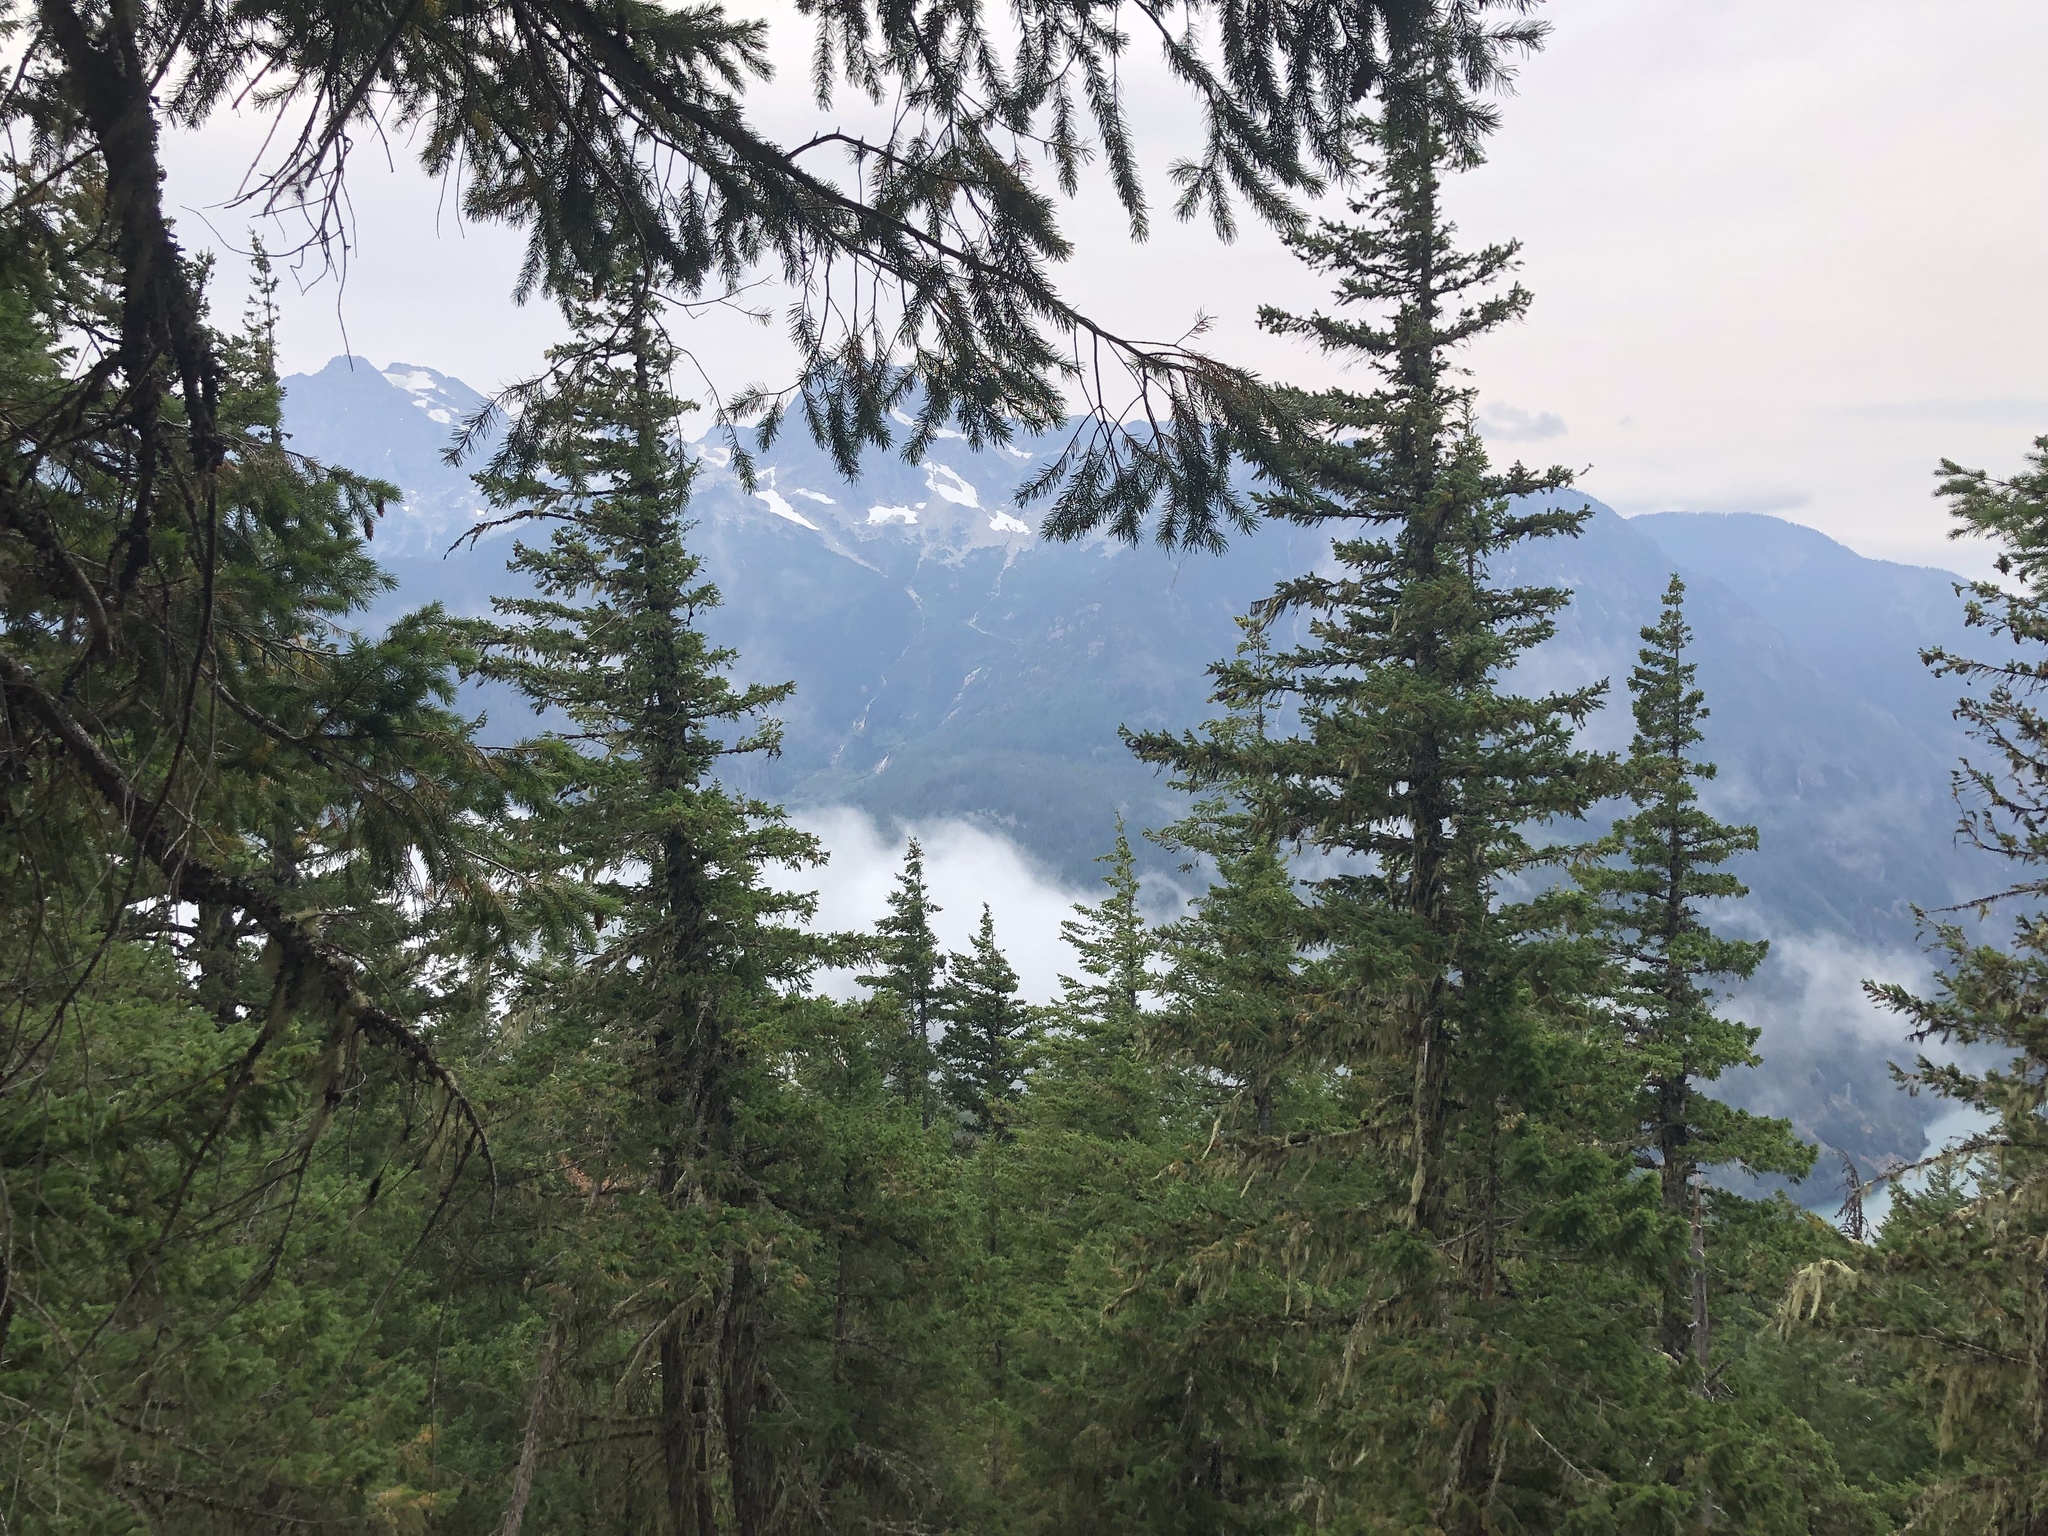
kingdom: Plantae
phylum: Tracheophyta
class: Pinopsida
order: Pinales
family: Pinaceae
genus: Pseudotsuga
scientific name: Pseudotsuga menziesii
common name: Douglas fir
